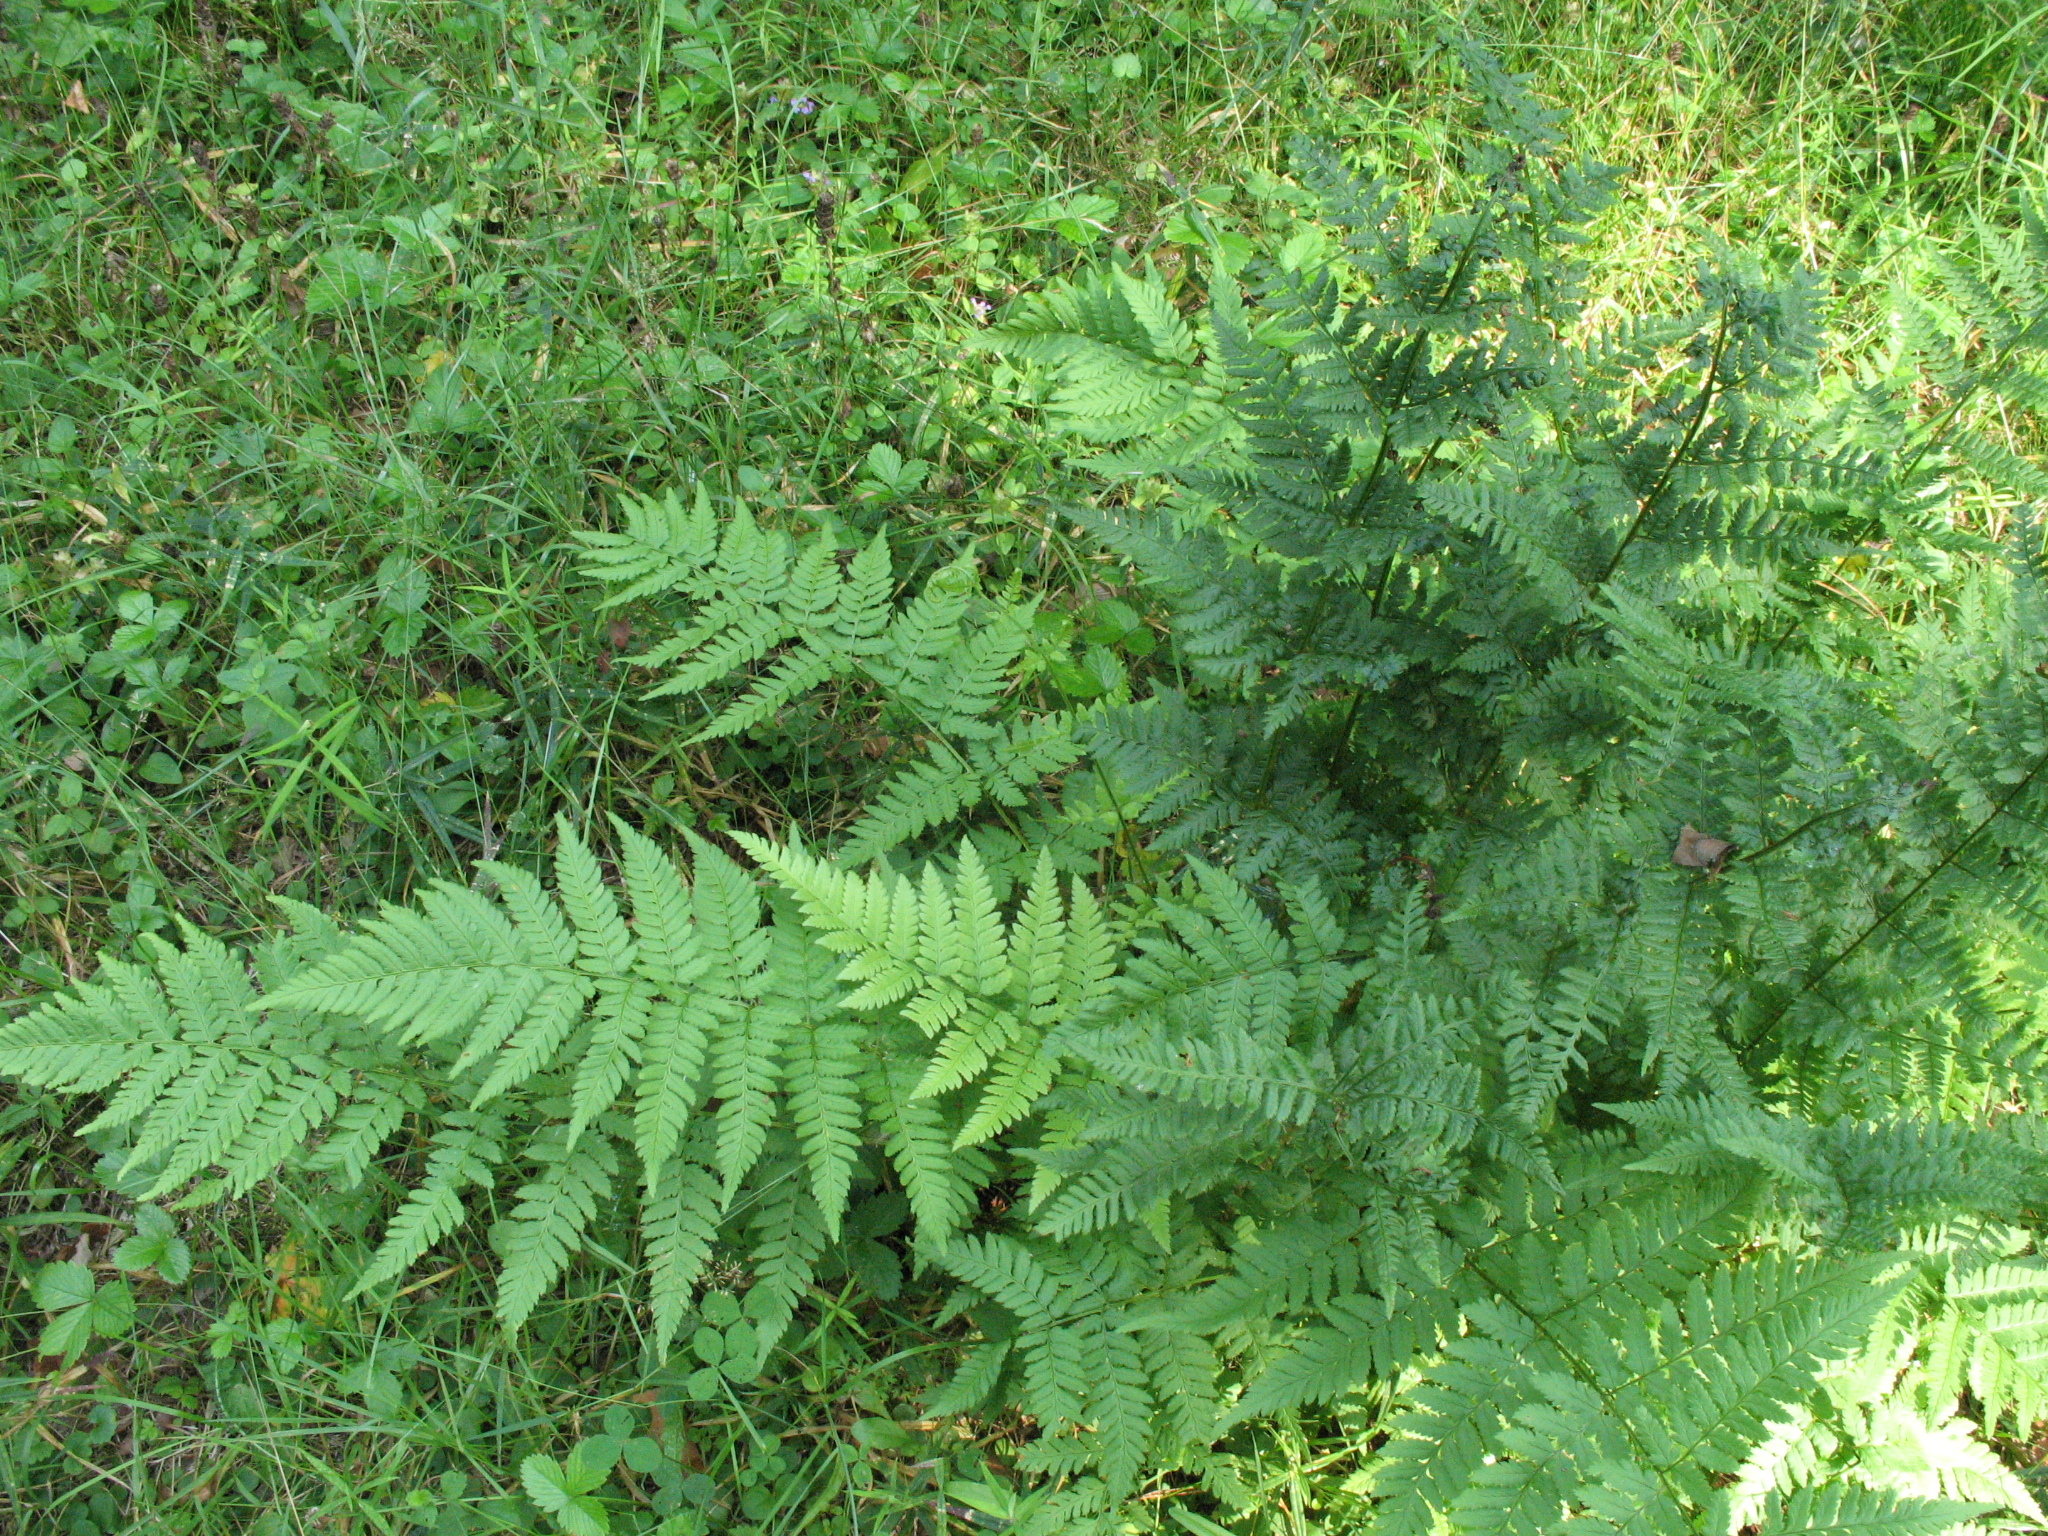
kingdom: Plantae
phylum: Tracheophyta
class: Polypodiopsida
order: Polypodiales
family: Dryopteridaceae
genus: Dryopteris
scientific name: Dryopteris carthusiana
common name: Narrow buckler-fern
